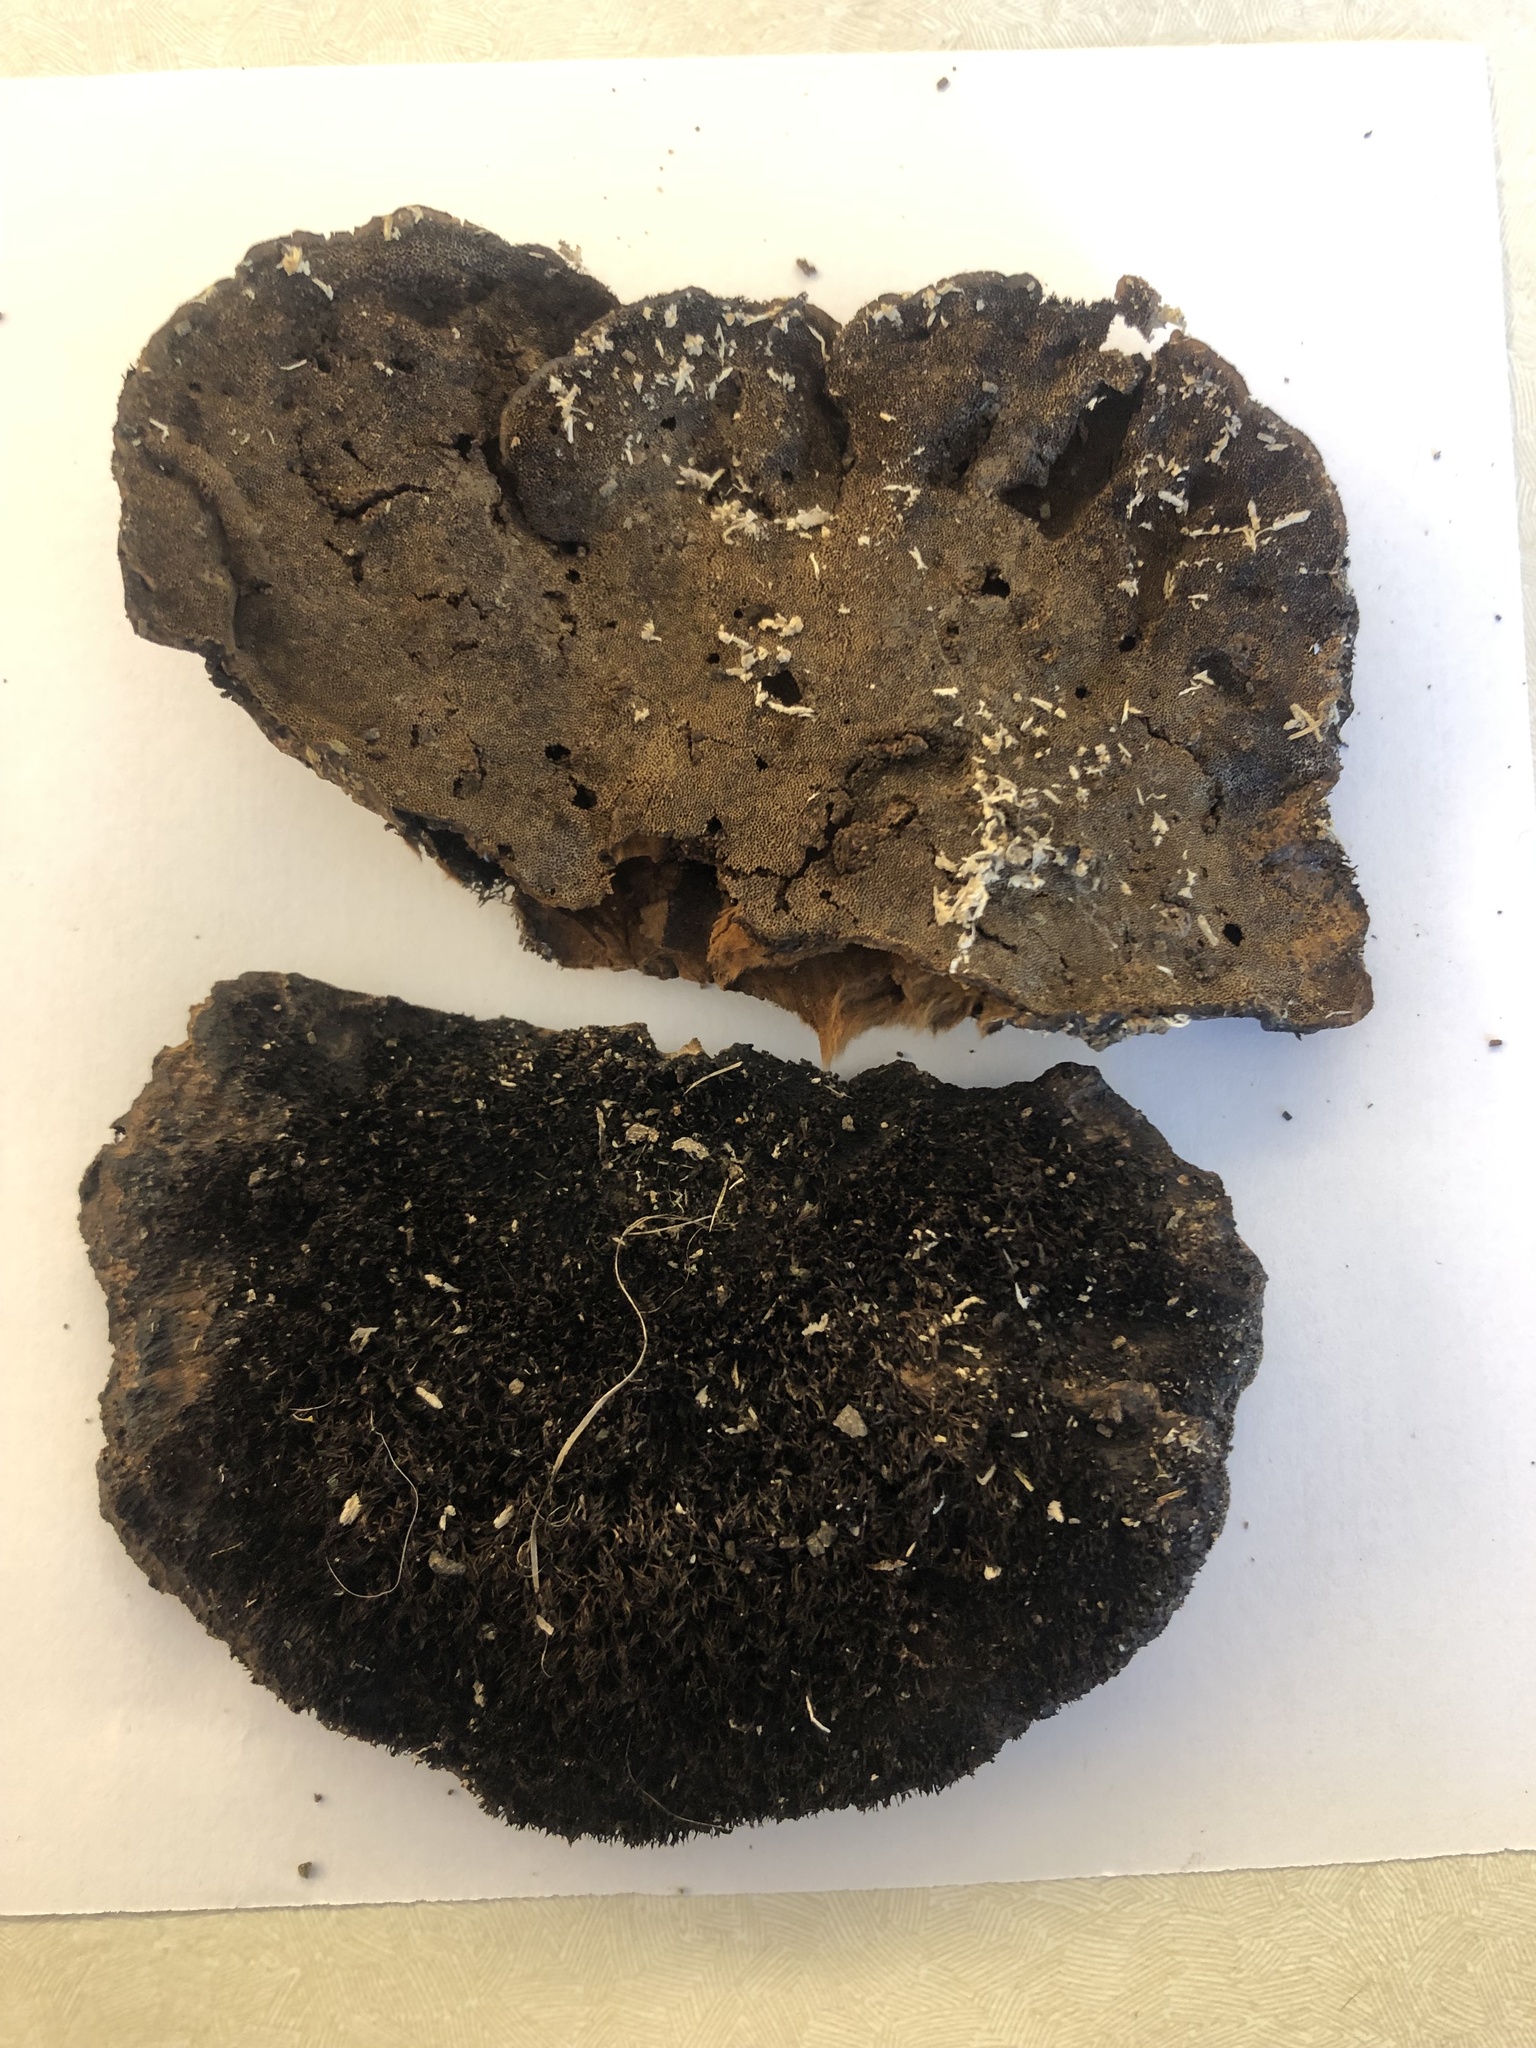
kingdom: Fungi
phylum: Basidiomycota
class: Agaricomycetes
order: Polyporales
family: Cerrenaceae
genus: Cerrena
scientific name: Cerrena hydnoides
